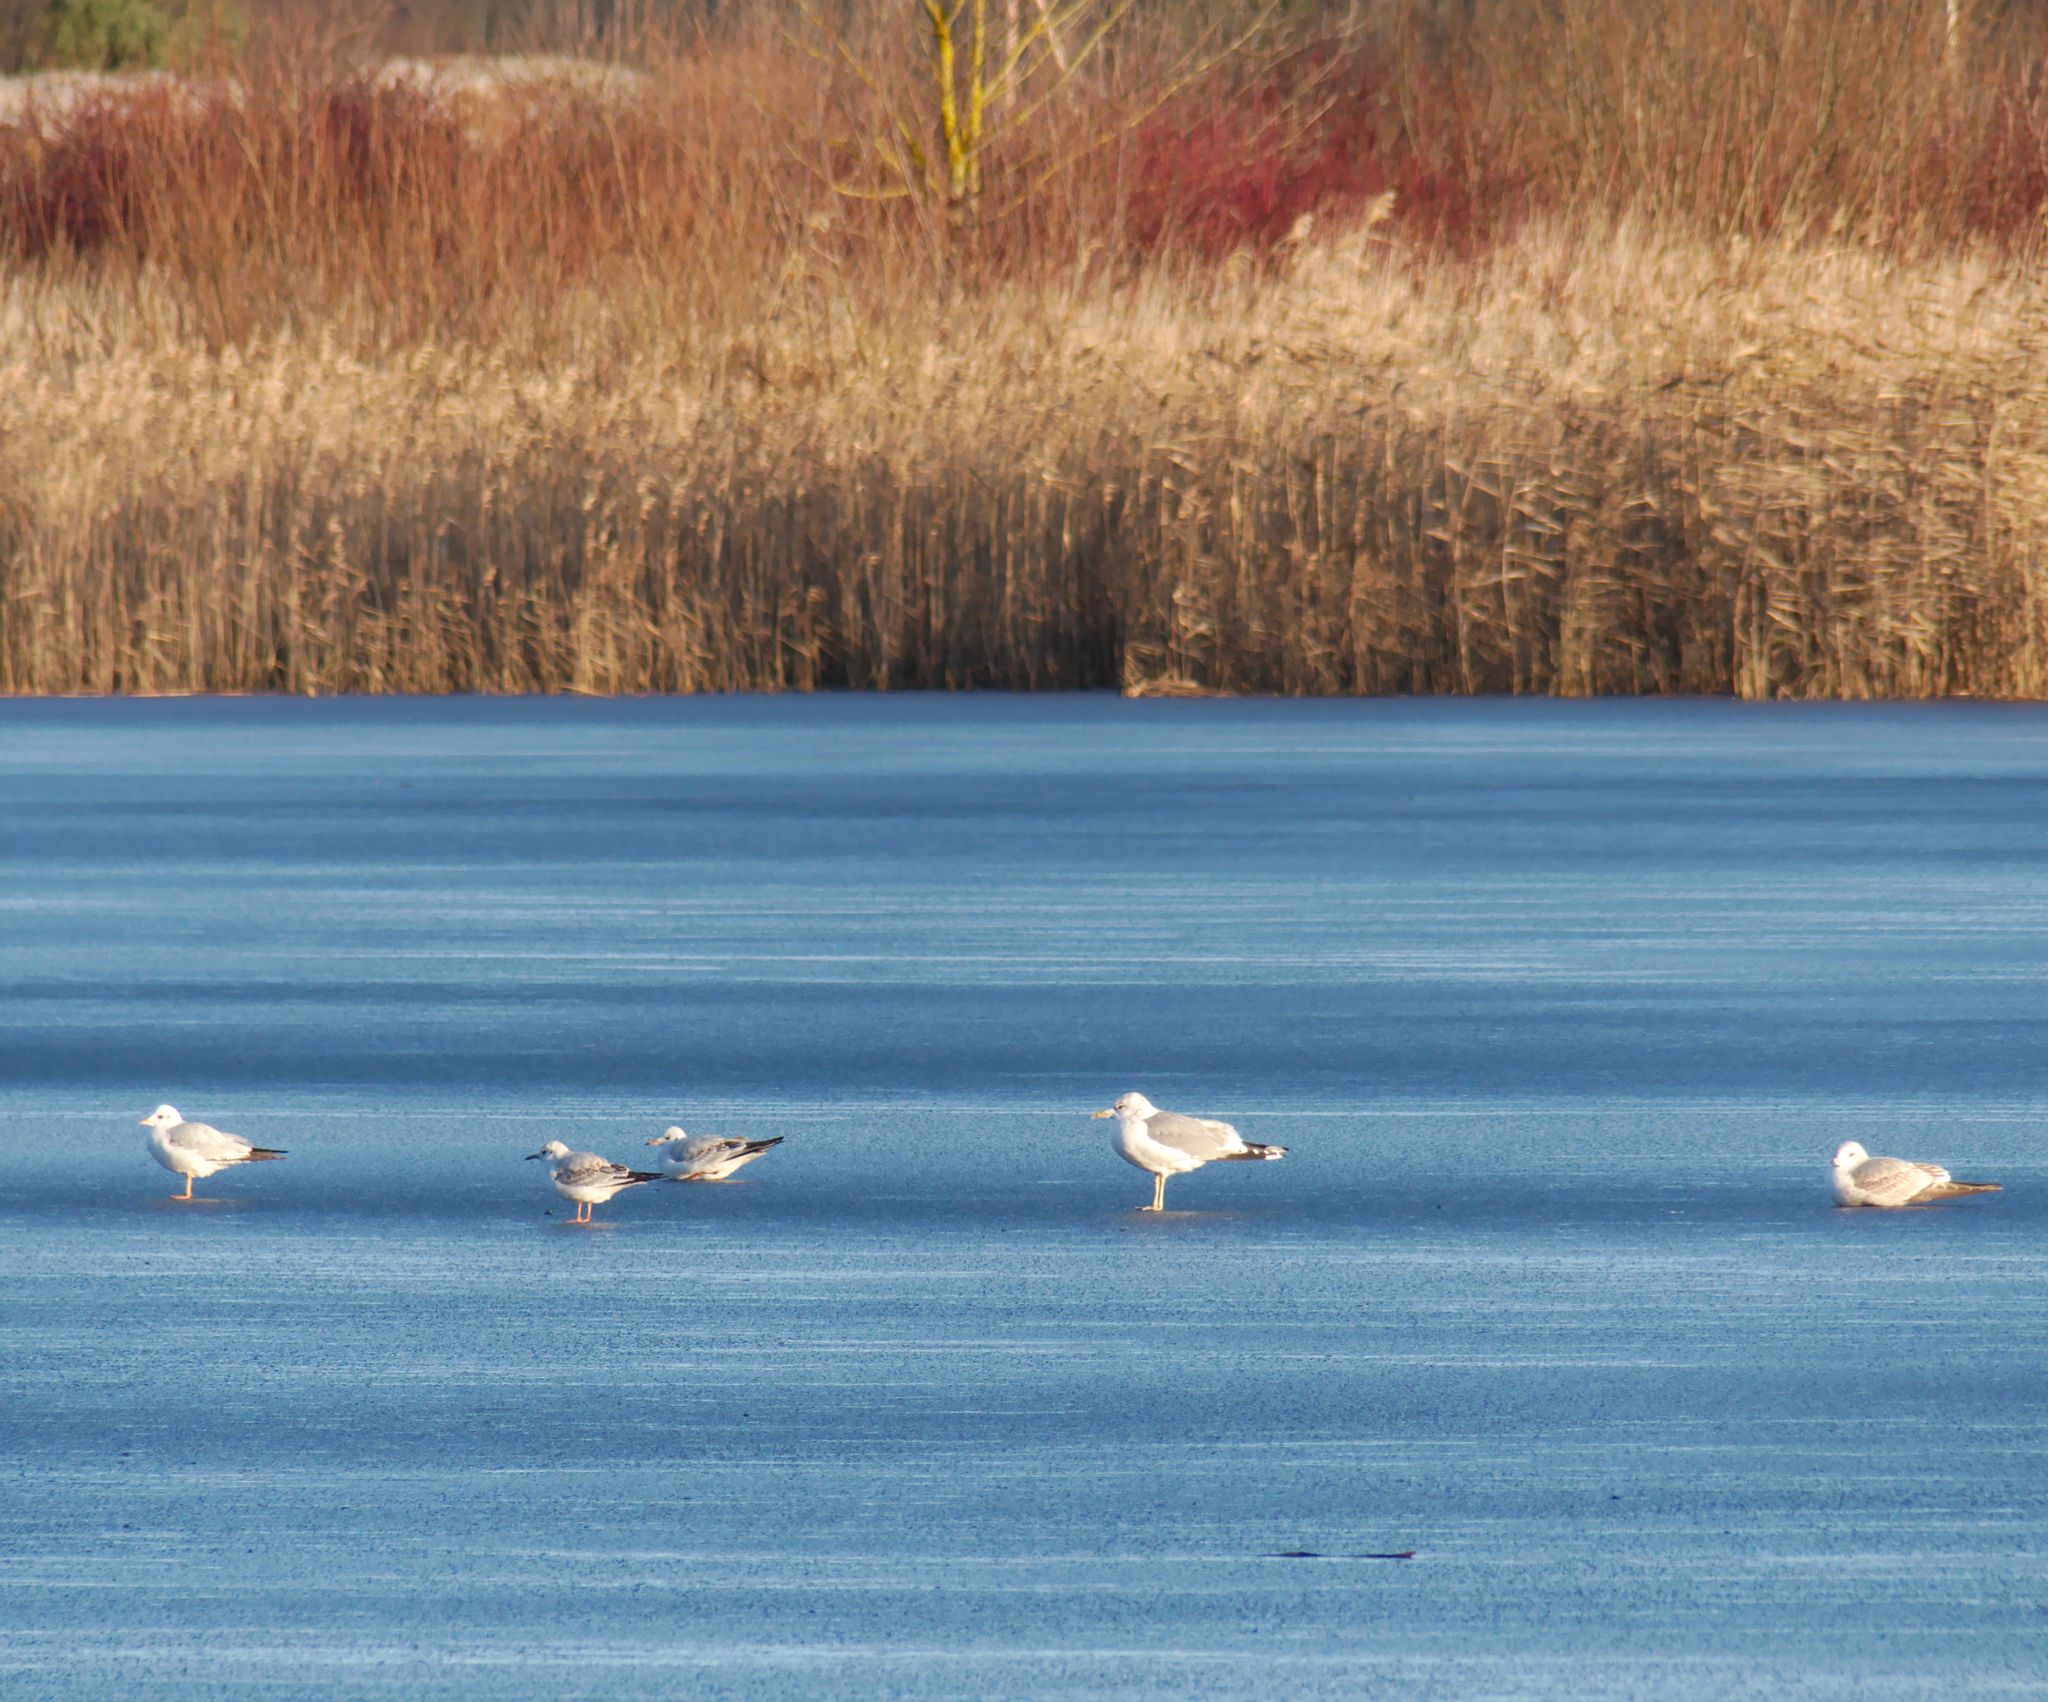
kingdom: Animalia
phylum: Chordata
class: Aves
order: Charadriiformes
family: Laridae
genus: Larus
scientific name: Larus canus
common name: Mew gull
